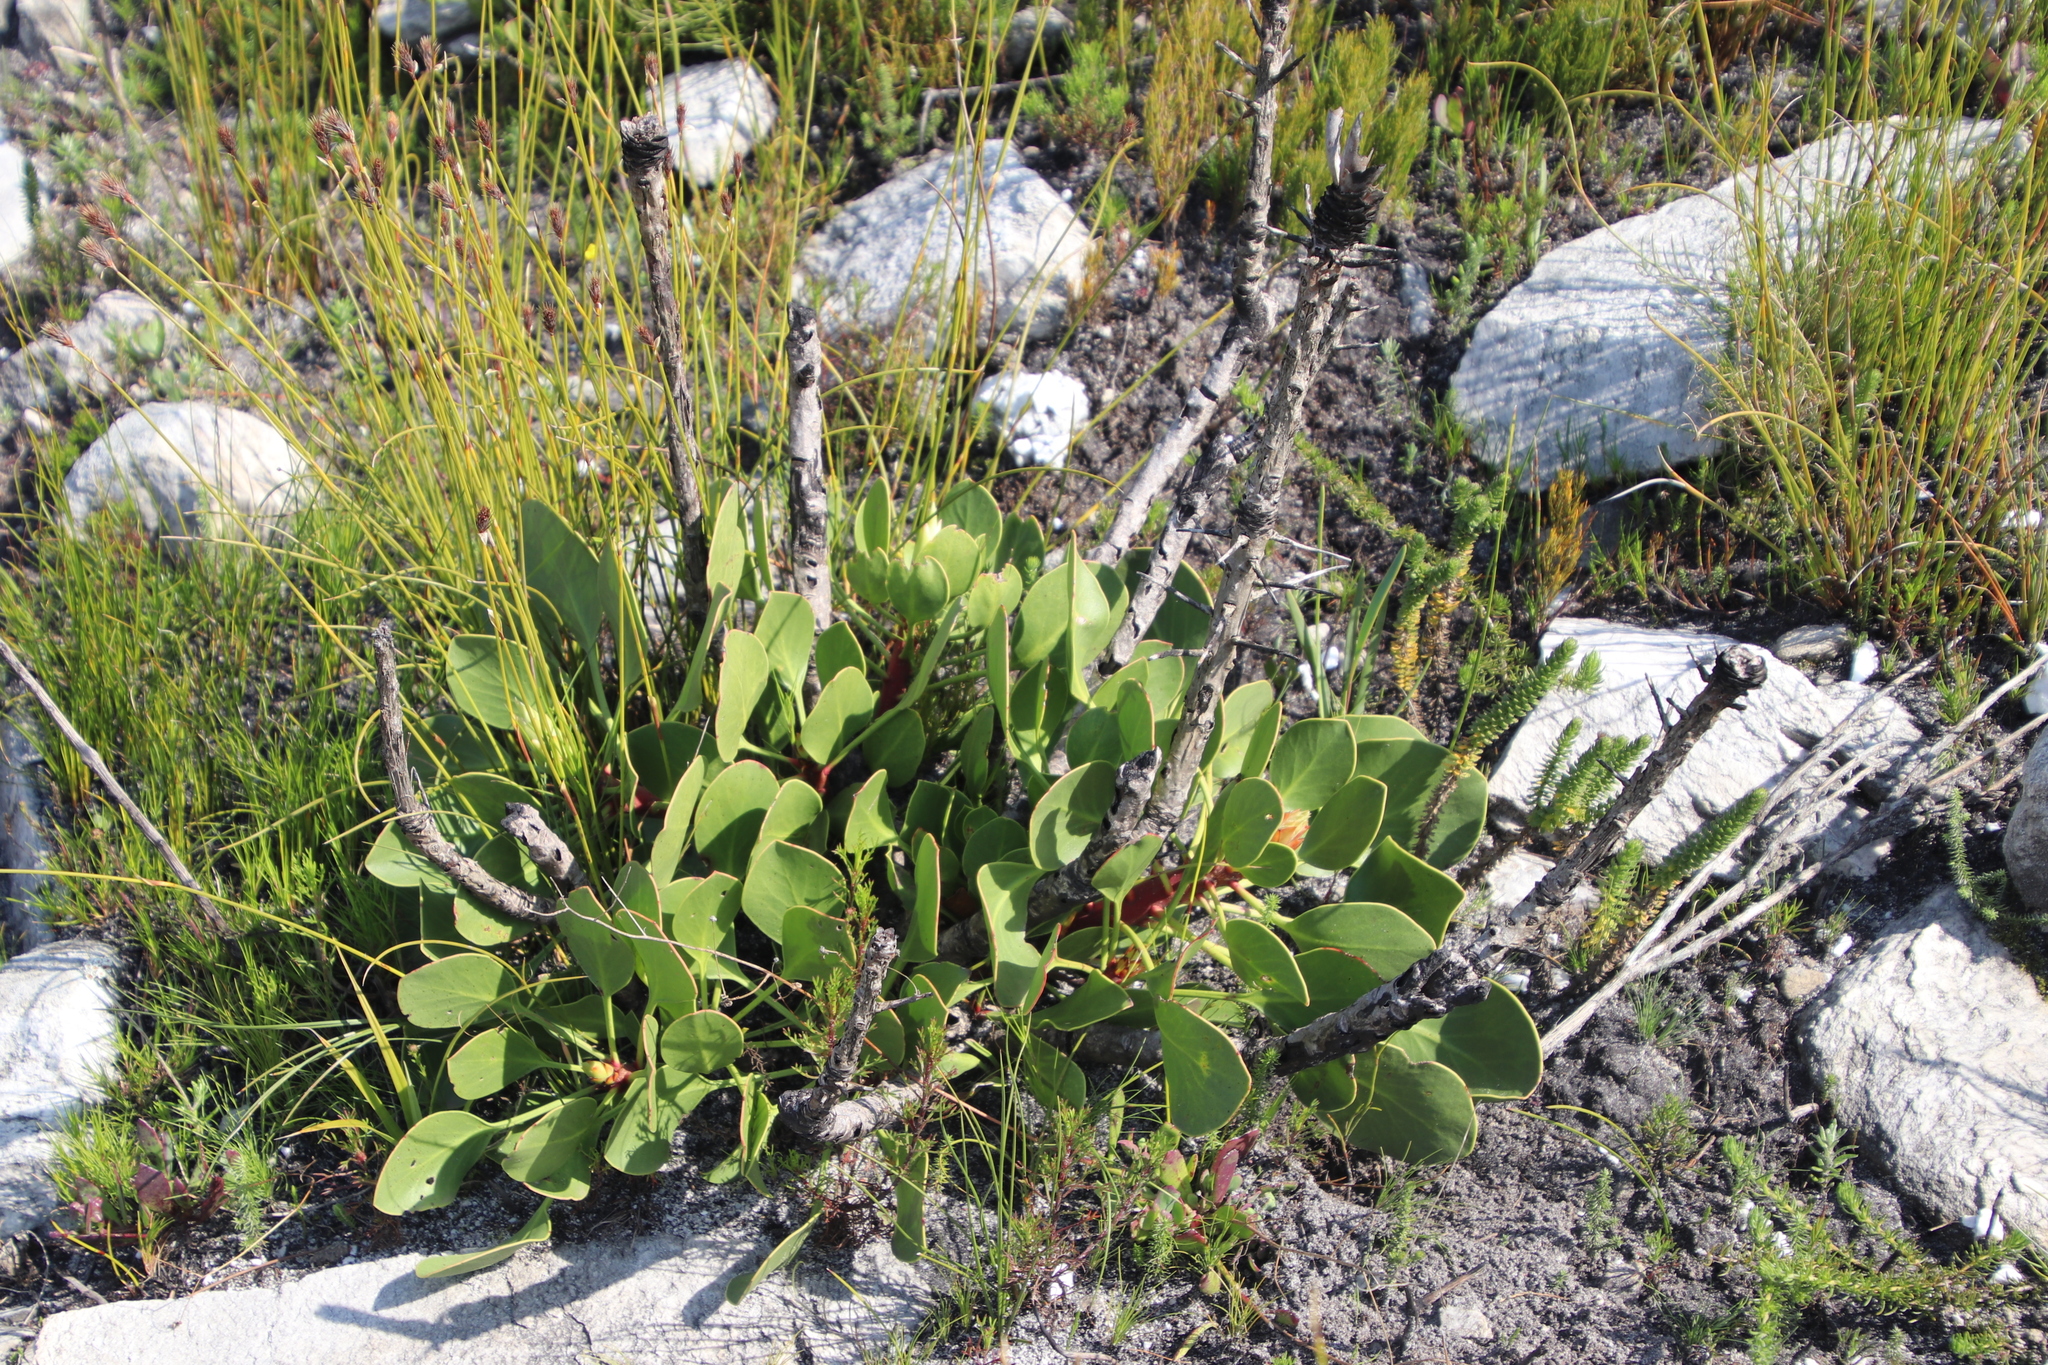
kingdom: Plantae
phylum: Tracheophyta
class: Magnoliopsida
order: Proteales
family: Proteaceae
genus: Protea
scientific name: Protea cynaroides
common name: King protea
